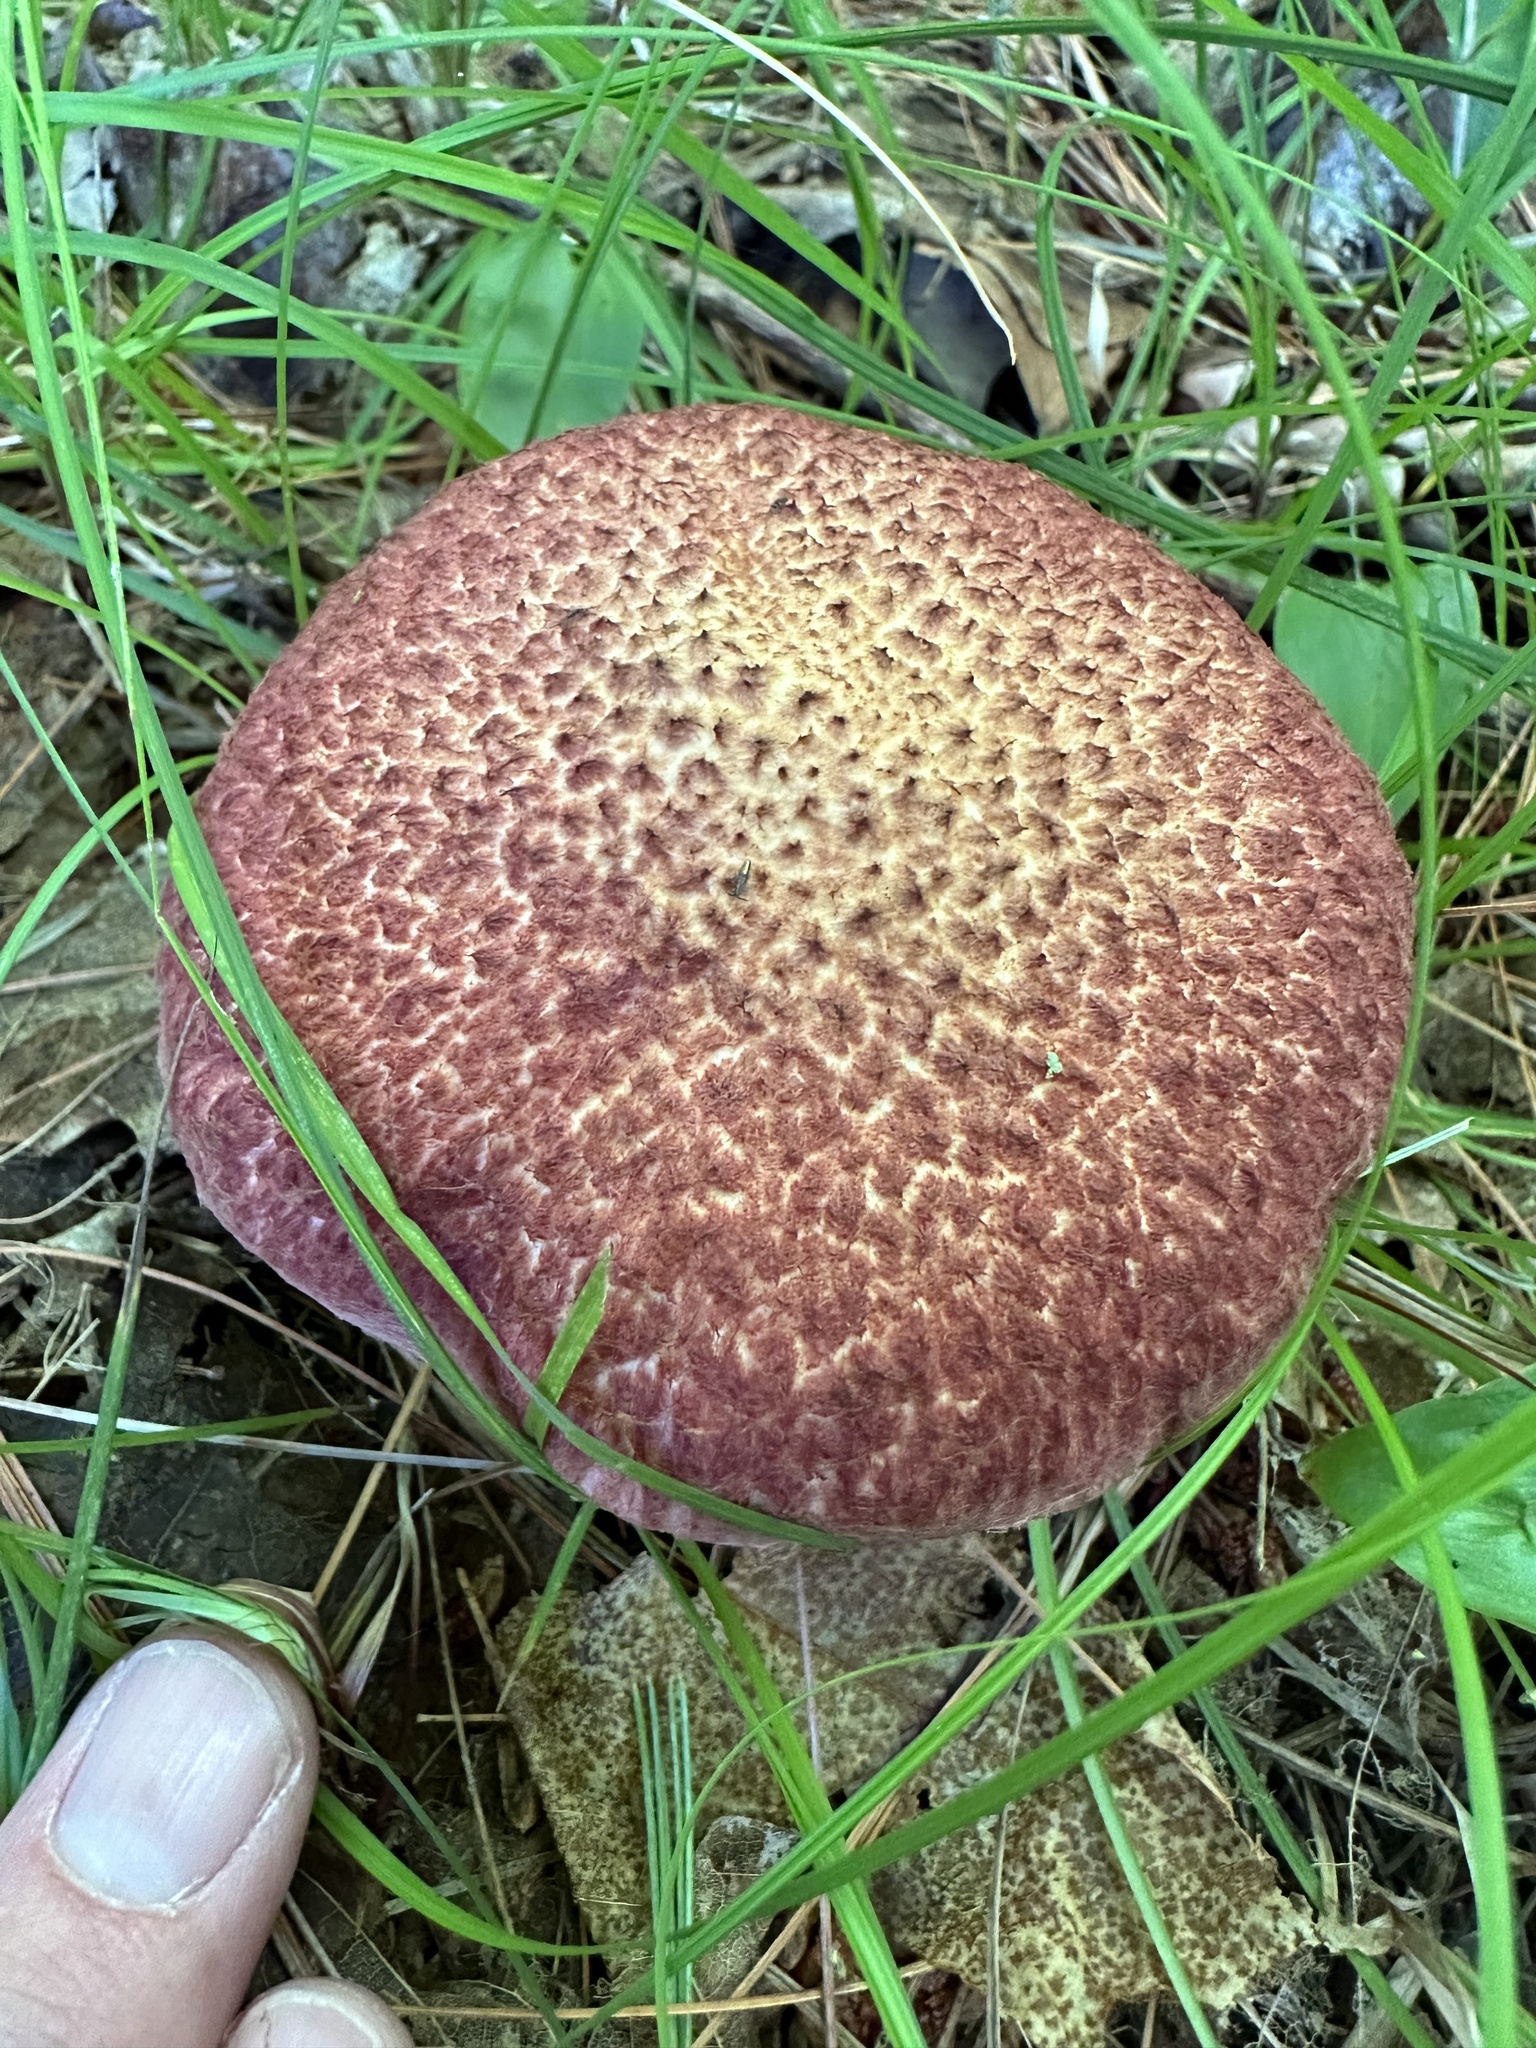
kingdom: Fungi
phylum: Basidiomycota
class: Agaricomycetes
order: Boletales
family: Suillaceae
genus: Suillus
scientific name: Suillus spraguei
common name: Painted suillus
